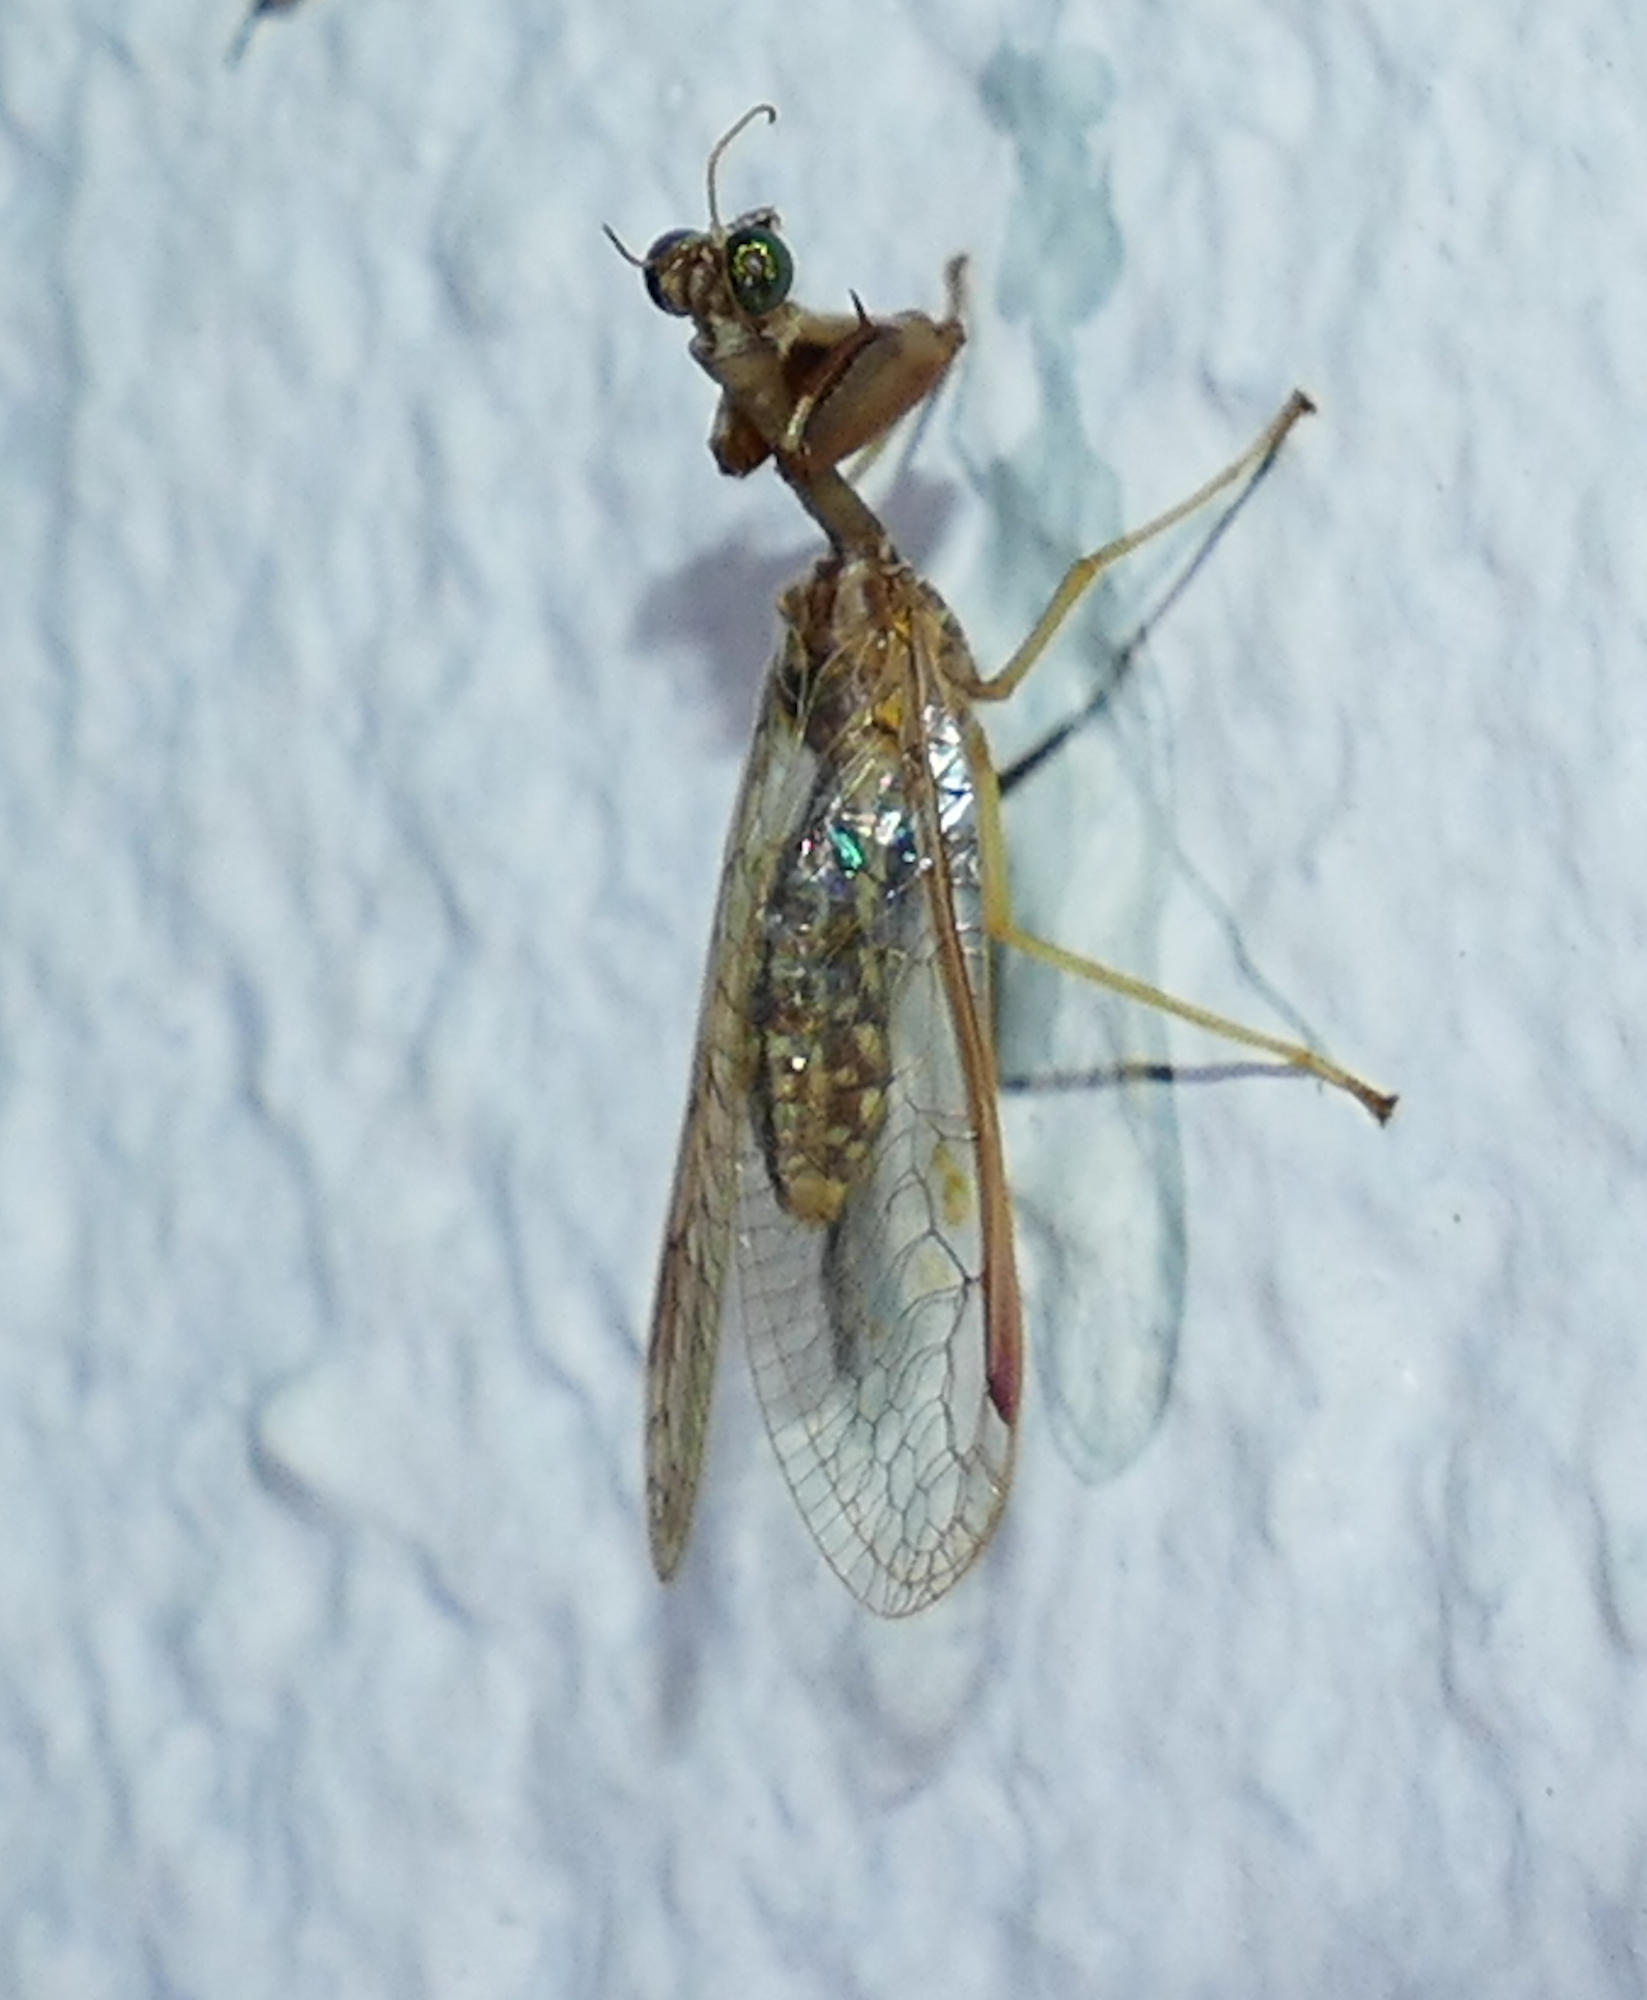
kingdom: Animalia
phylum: Arthropoda
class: Insecta
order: Neuroptera
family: Mantispidae
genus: Dicromantispa
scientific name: Dicromantispa sayi
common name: Say's mantidfly
